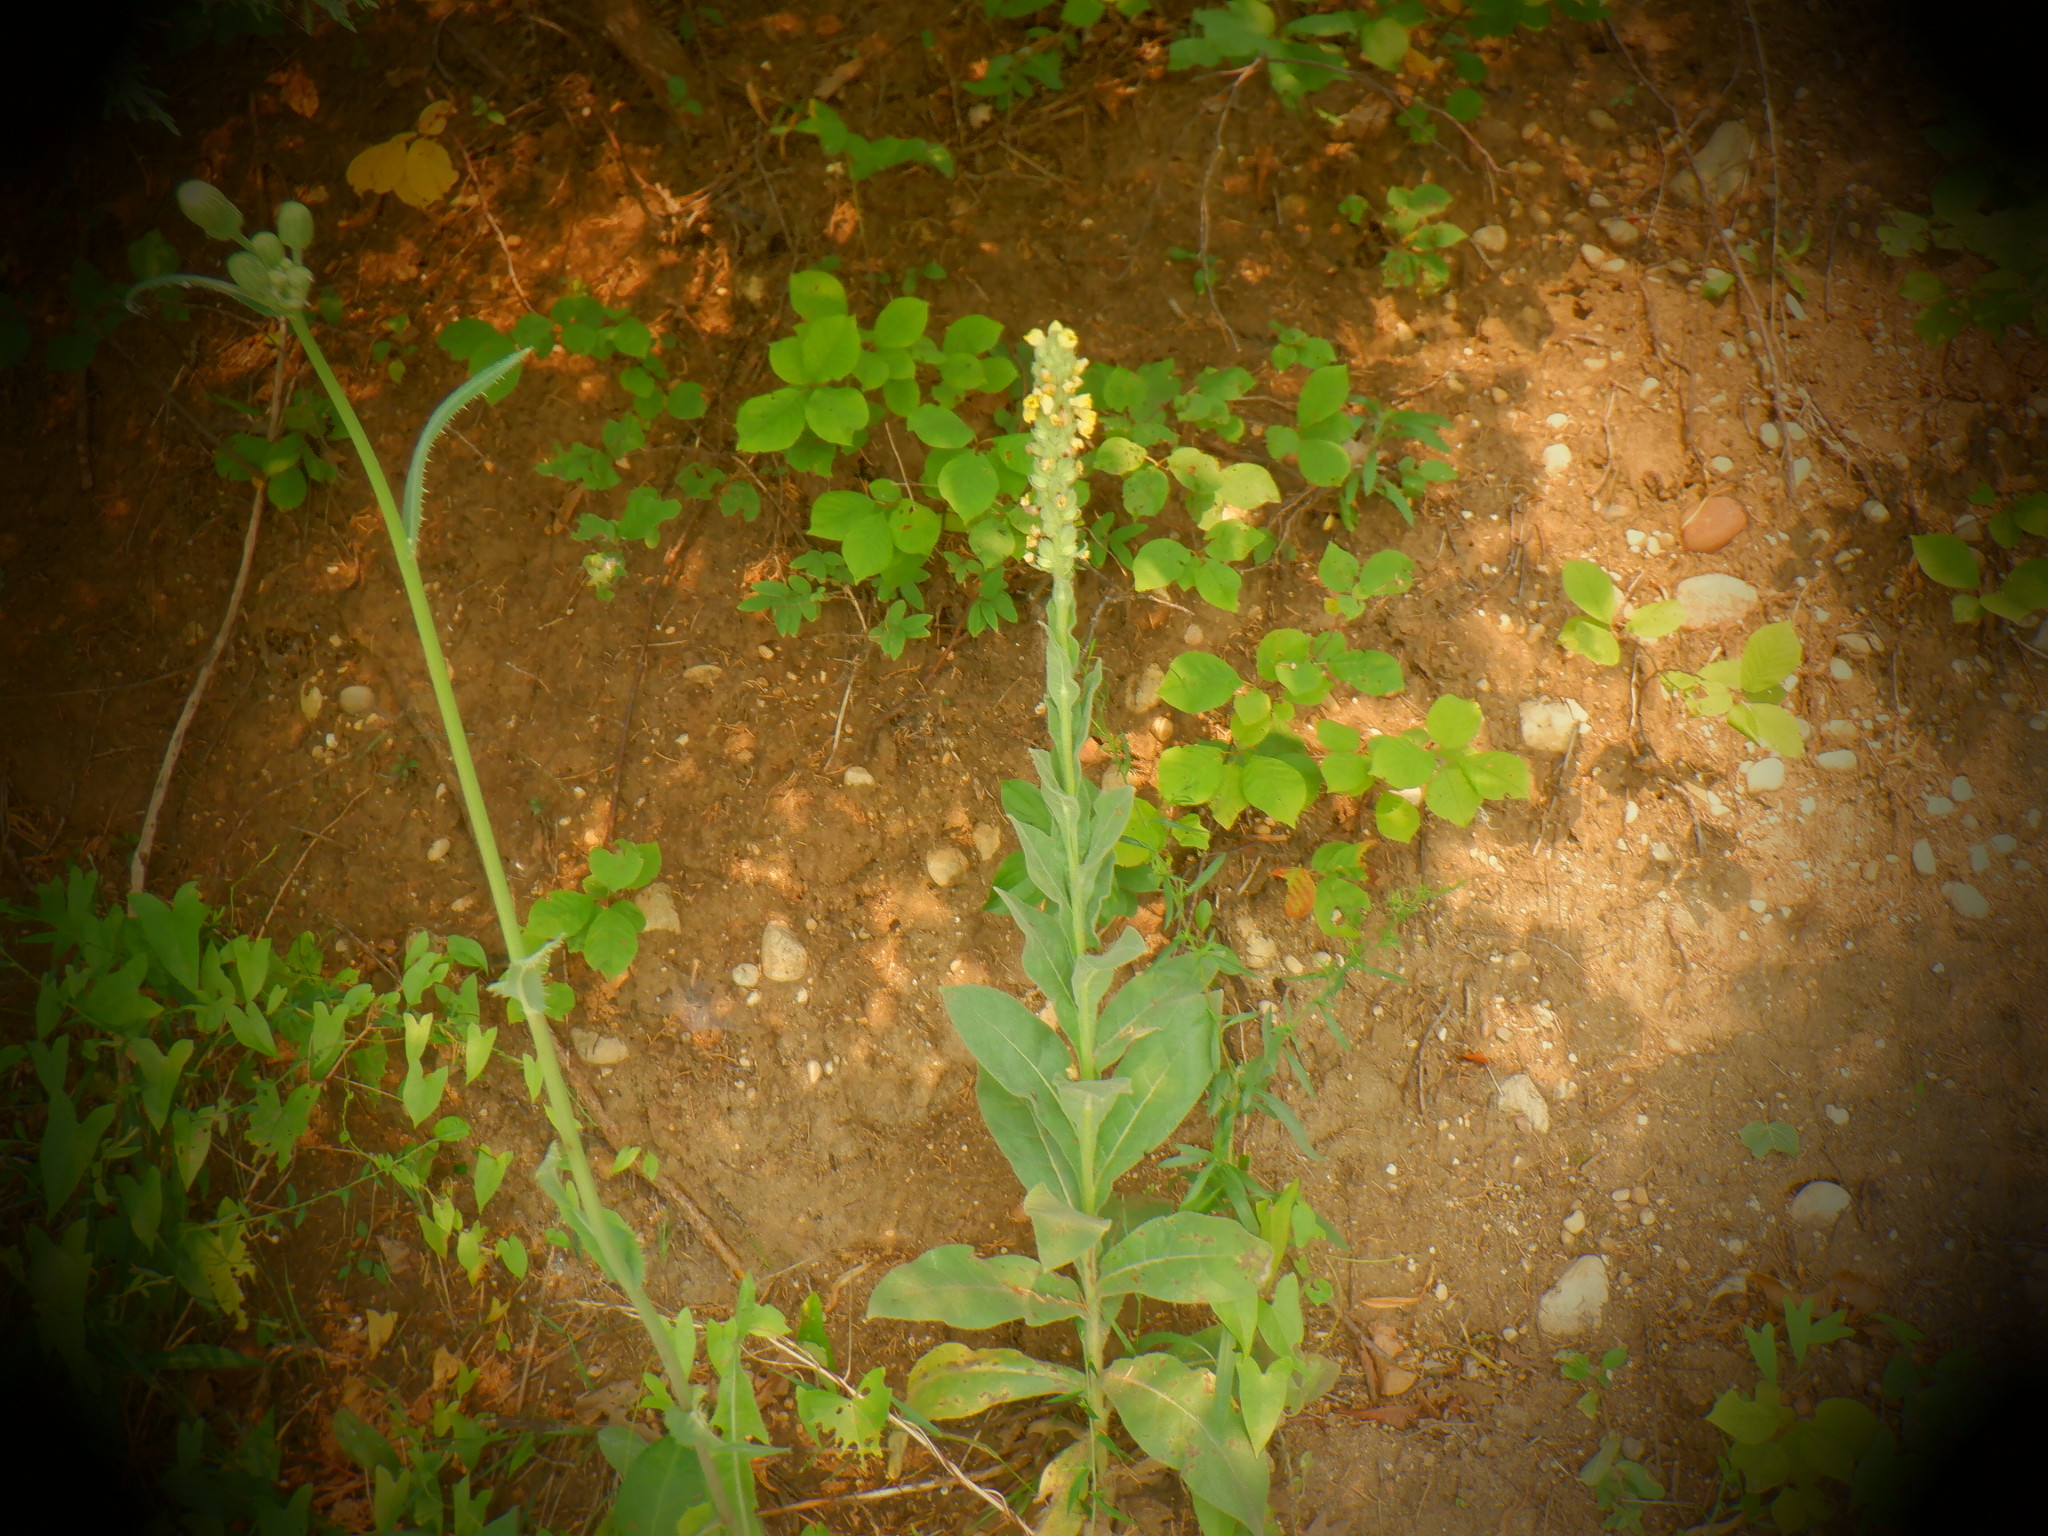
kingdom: Plantae
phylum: Tracheophyta
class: Magnoliopsida
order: Lamiales
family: Scrophulariaceae
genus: Verbascum
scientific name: Verbascum thapsus
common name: Common mullein
